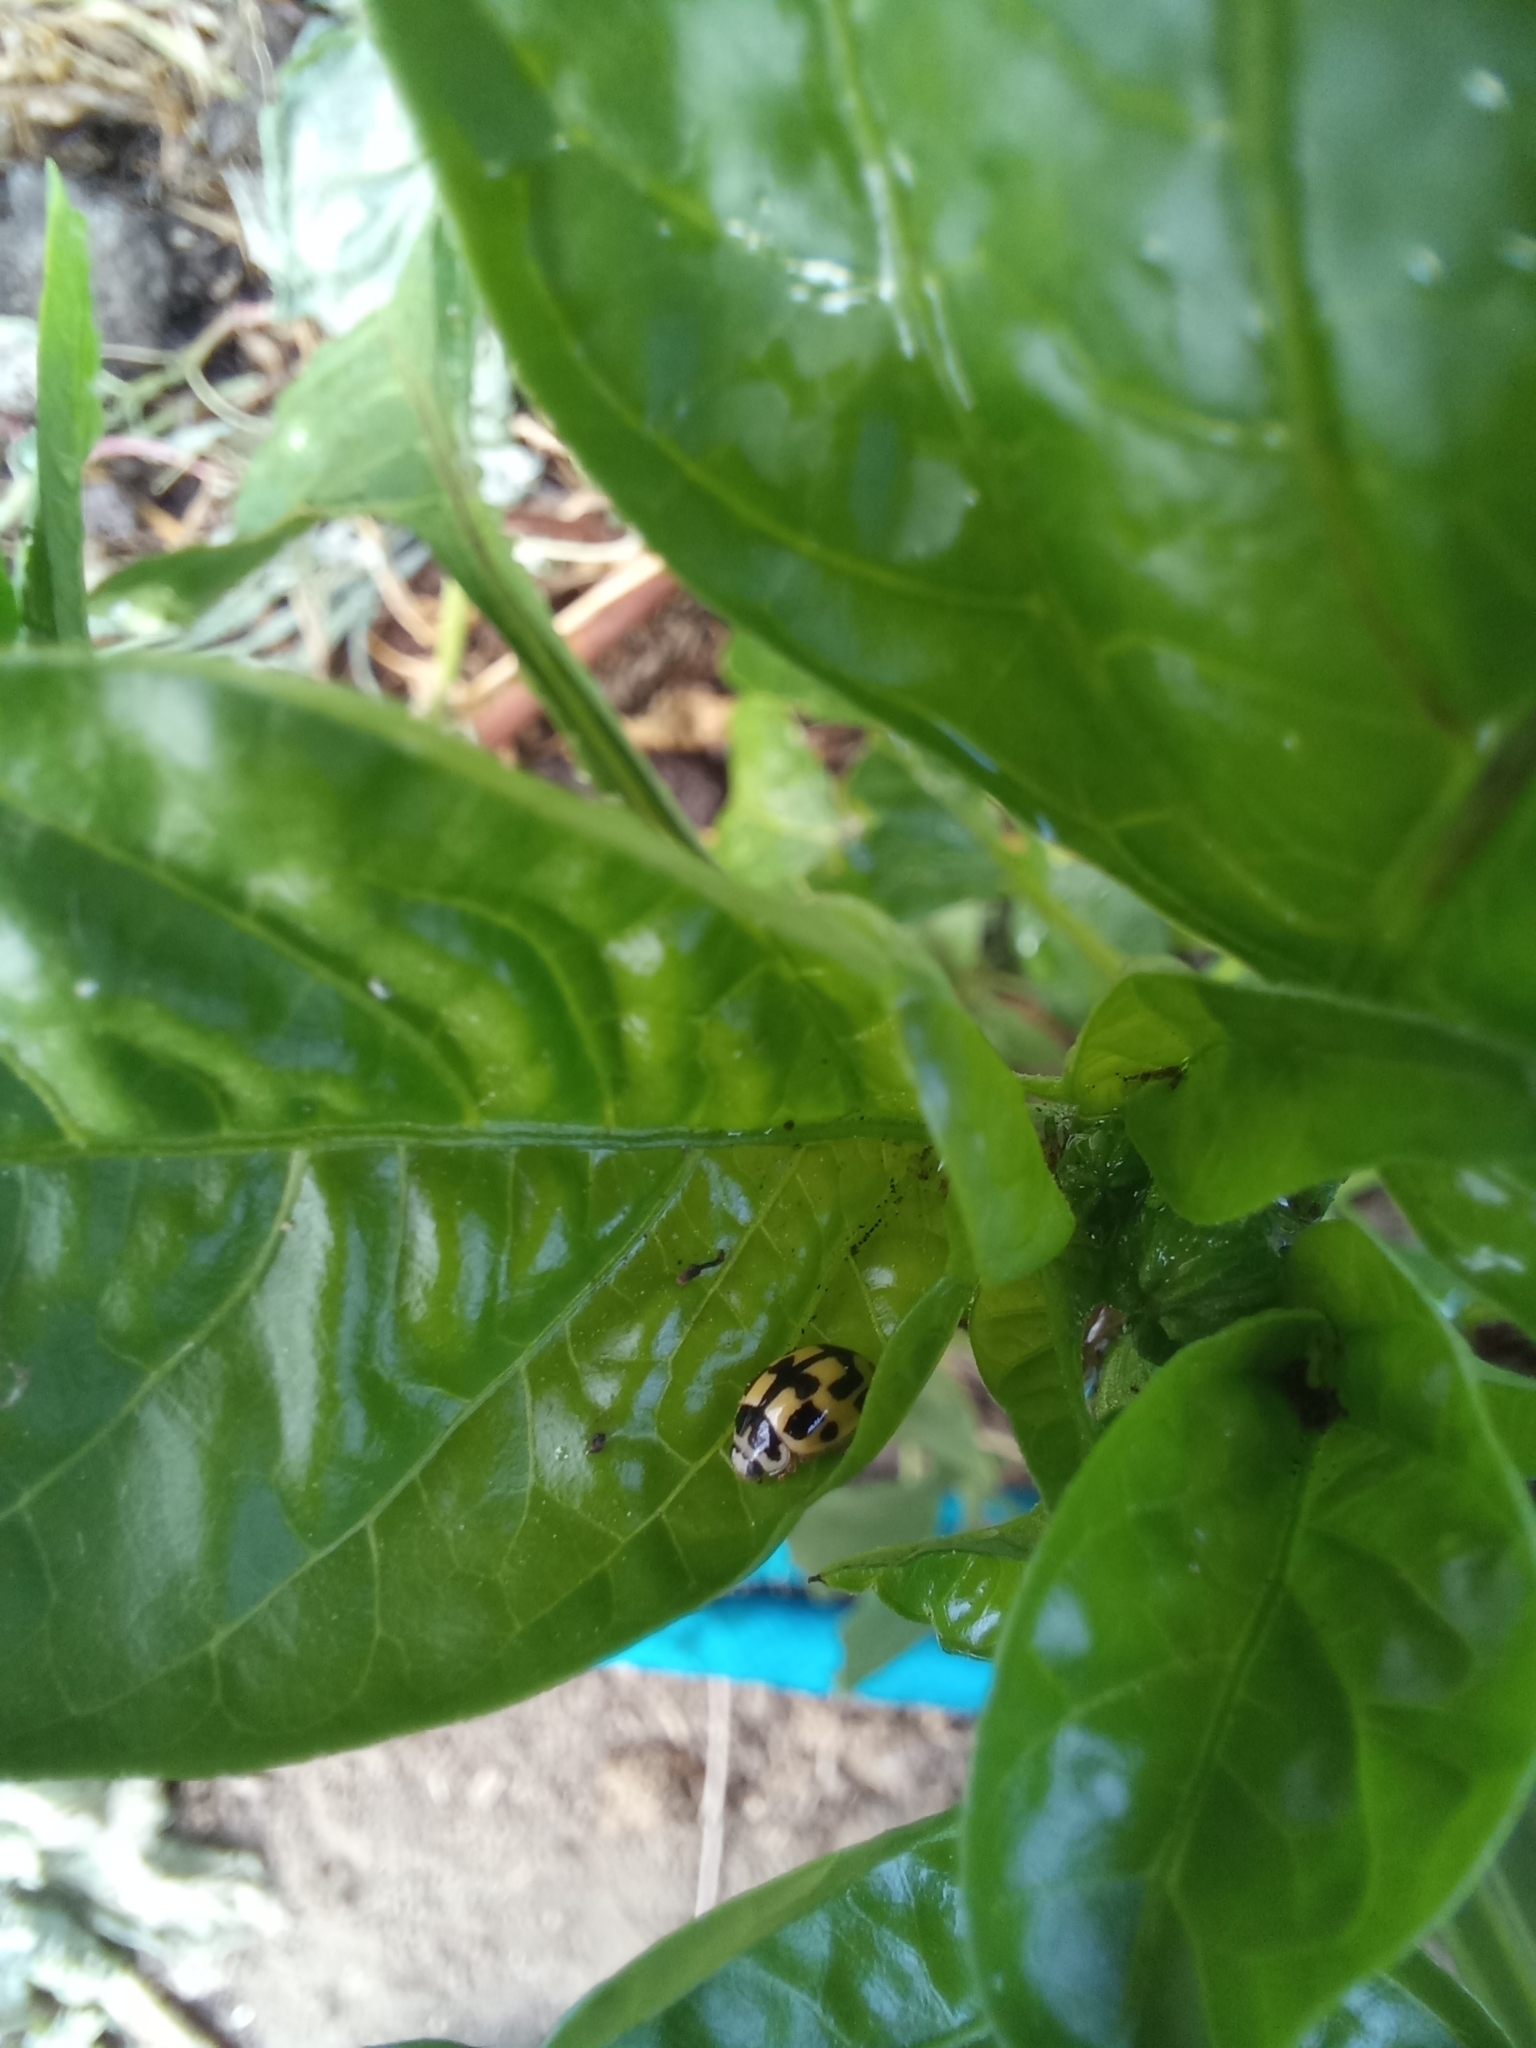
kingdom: Animalia
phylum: Arthropoda
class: Insecta
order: Coleoptera
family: Coccinellidae
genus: Propylaea
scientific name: Propylaea quatuordecimpunctata
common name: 14-spotted ladybird beetle
